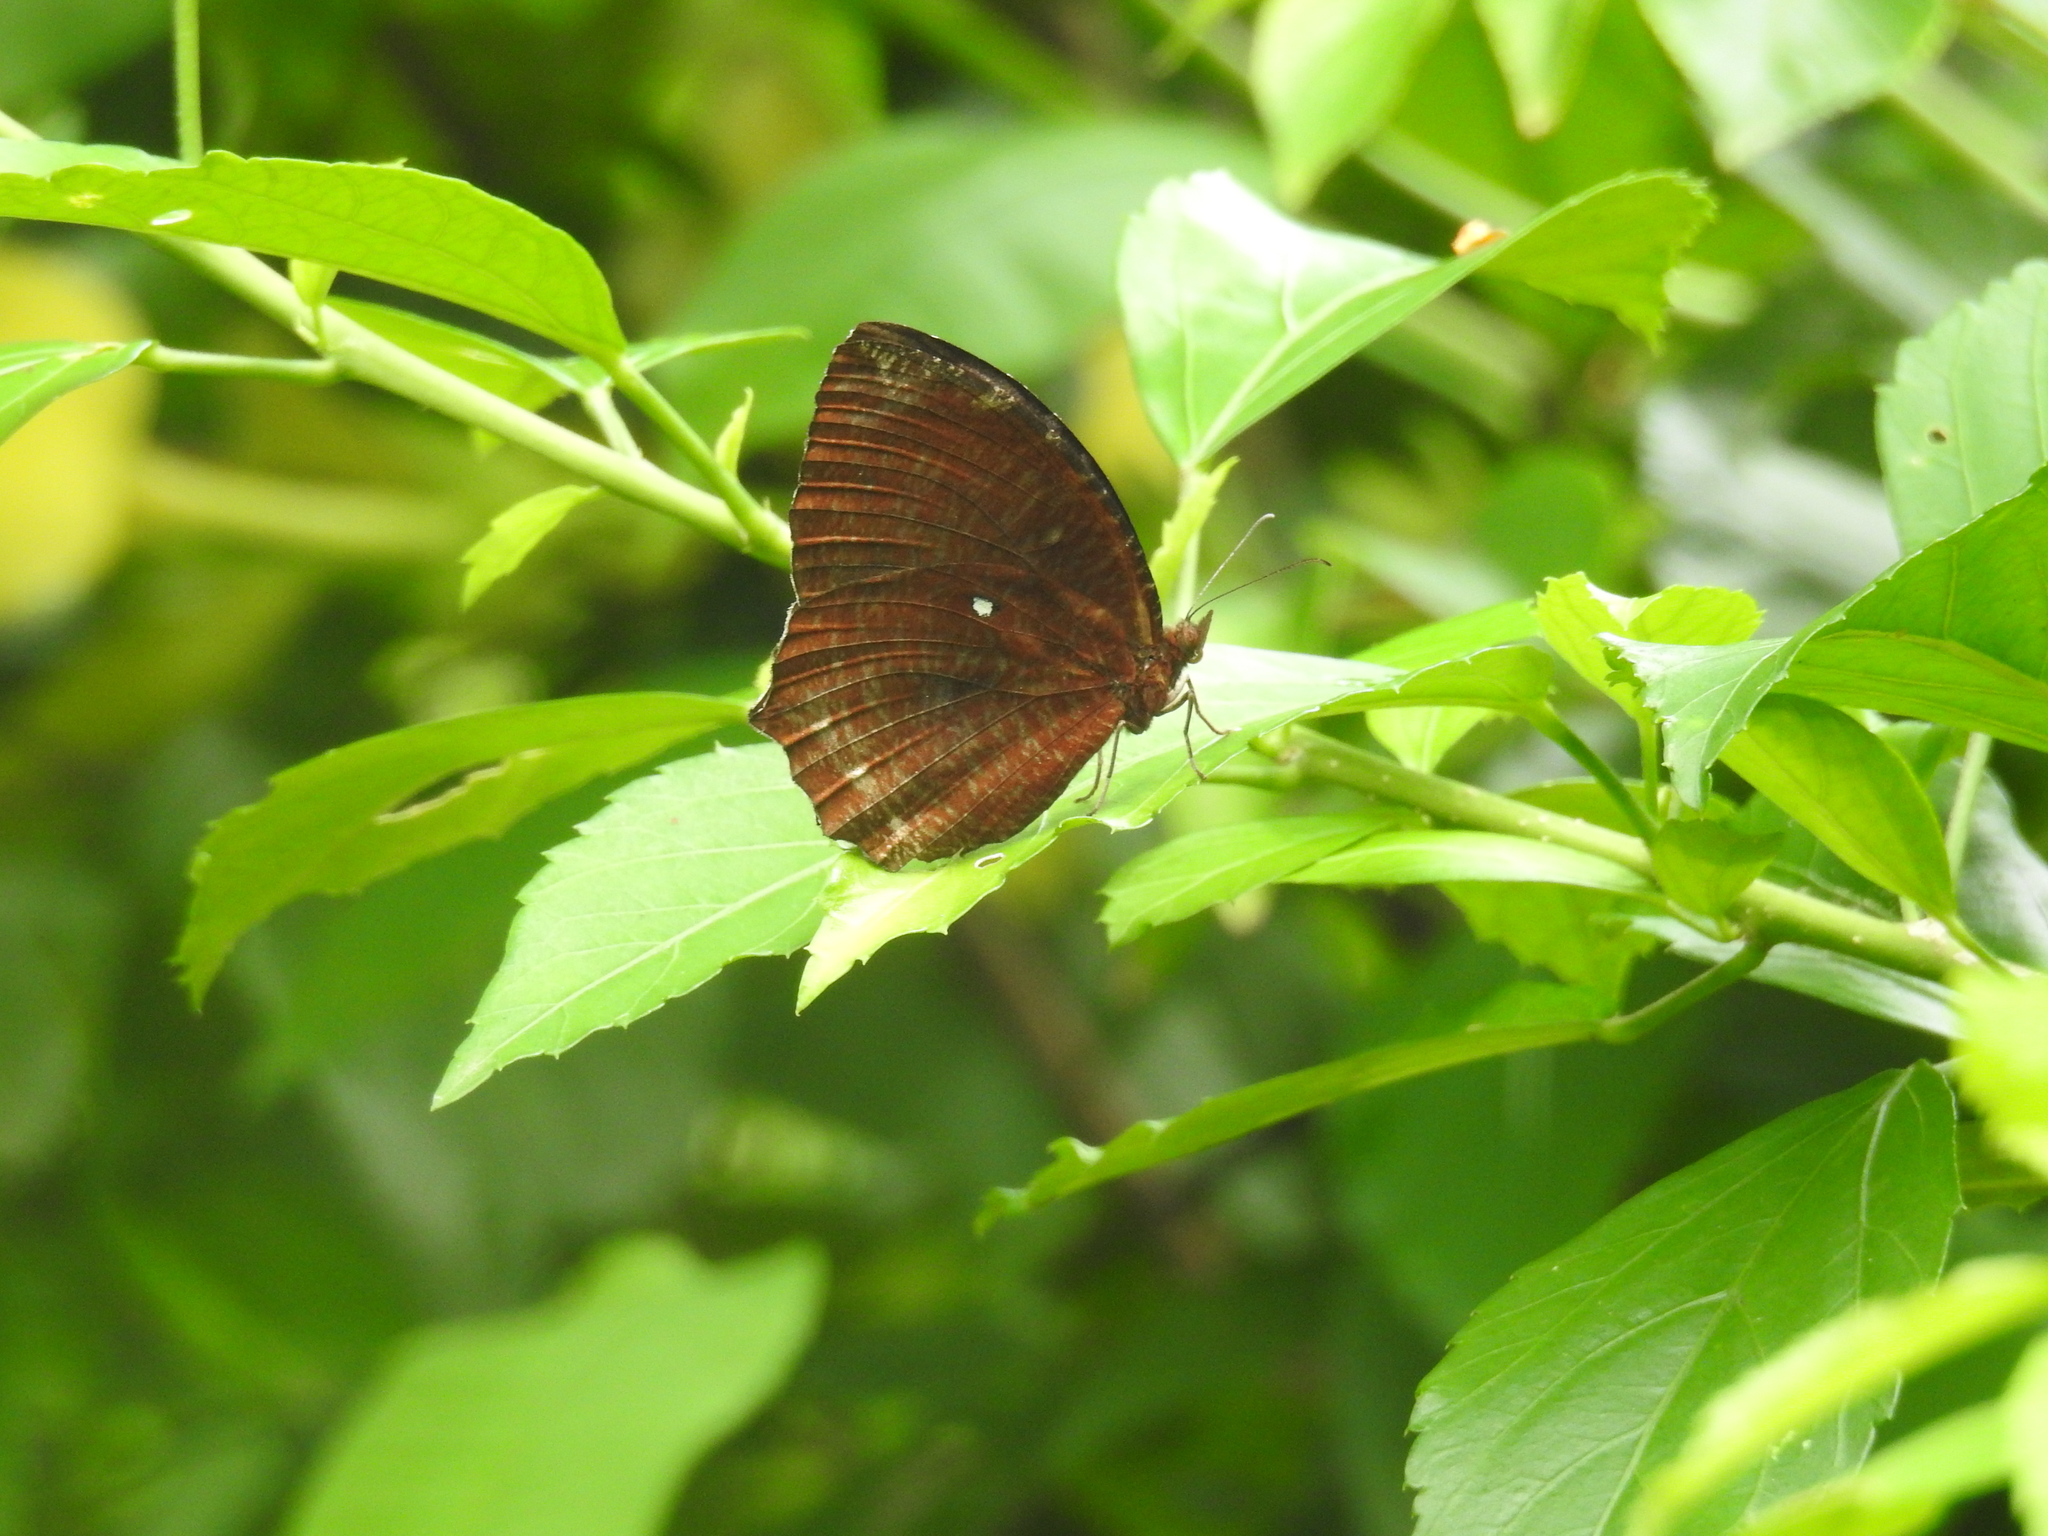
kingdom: Animalia
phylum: Arthropoda
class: Insecta
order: Lepidoptera
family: Nymphalidae
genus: Elymnias
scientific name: Elymnias hypermnestra
